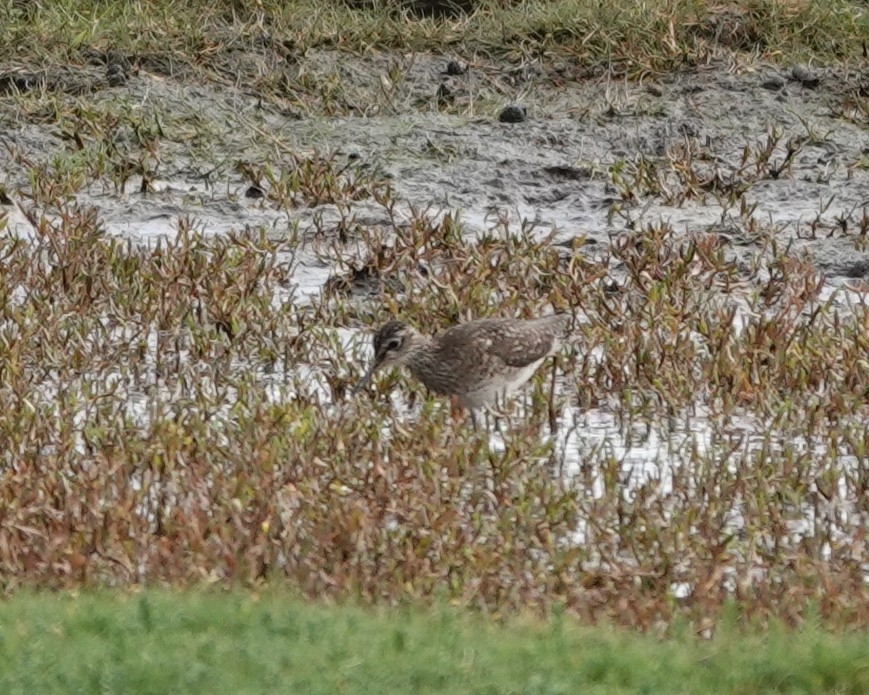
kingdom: Animalia
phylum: Chordata
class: Aves
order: Charadriiformes
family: Scolopacidae
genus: Tringa
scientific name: Tringa glareola
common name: Wood sandpiper
